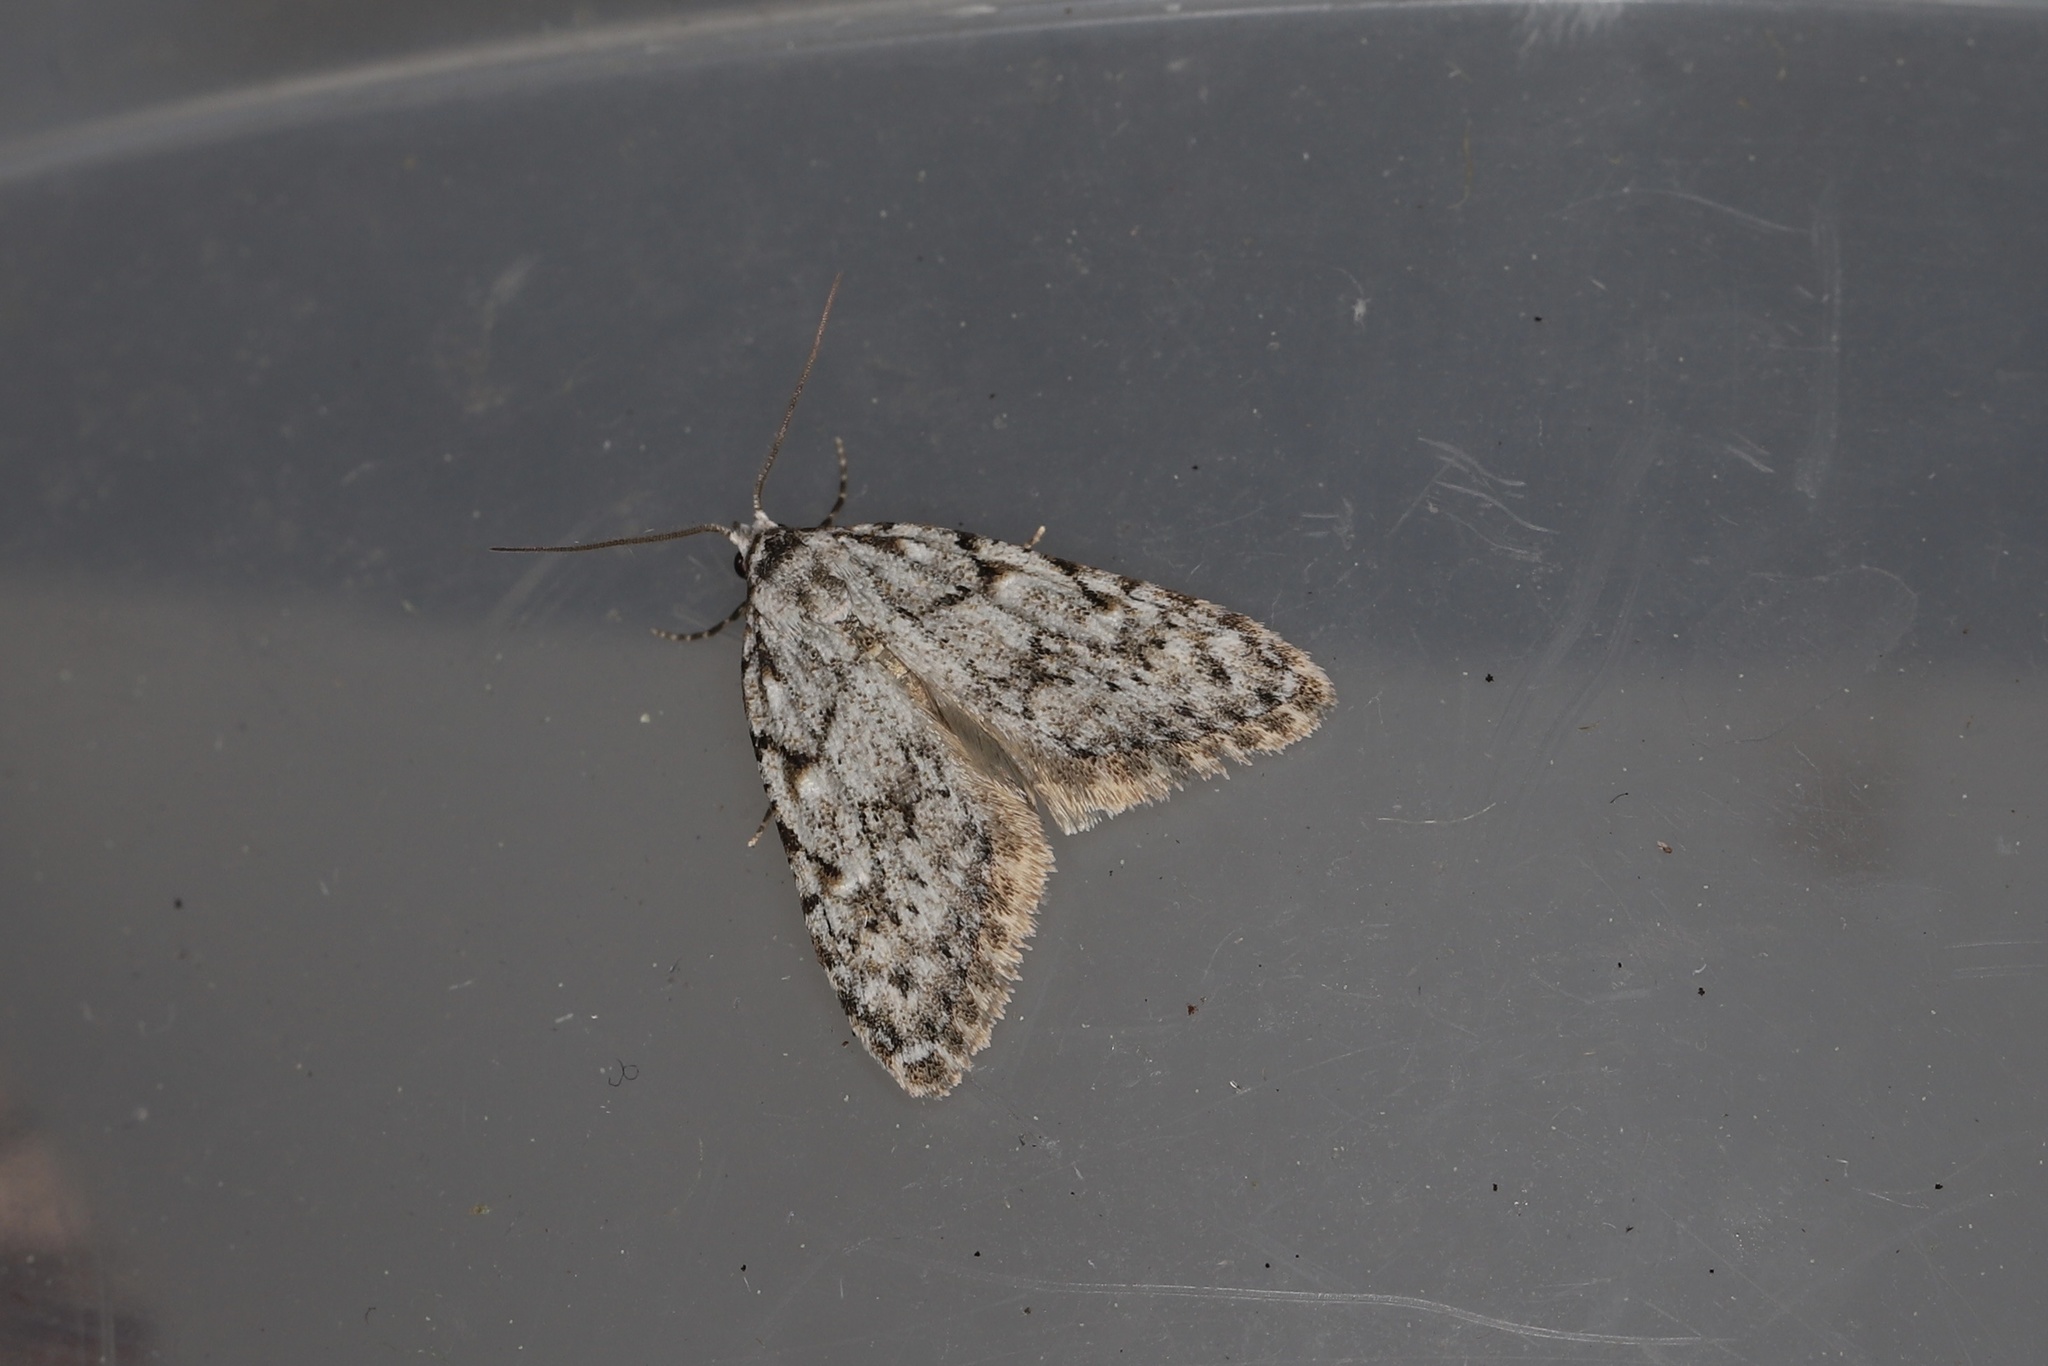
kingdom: Animalia
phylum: Arthropoda
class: Insecta
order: Lepidoptera
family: Nolidae
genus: Nola
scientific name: Nola cicatricalis
